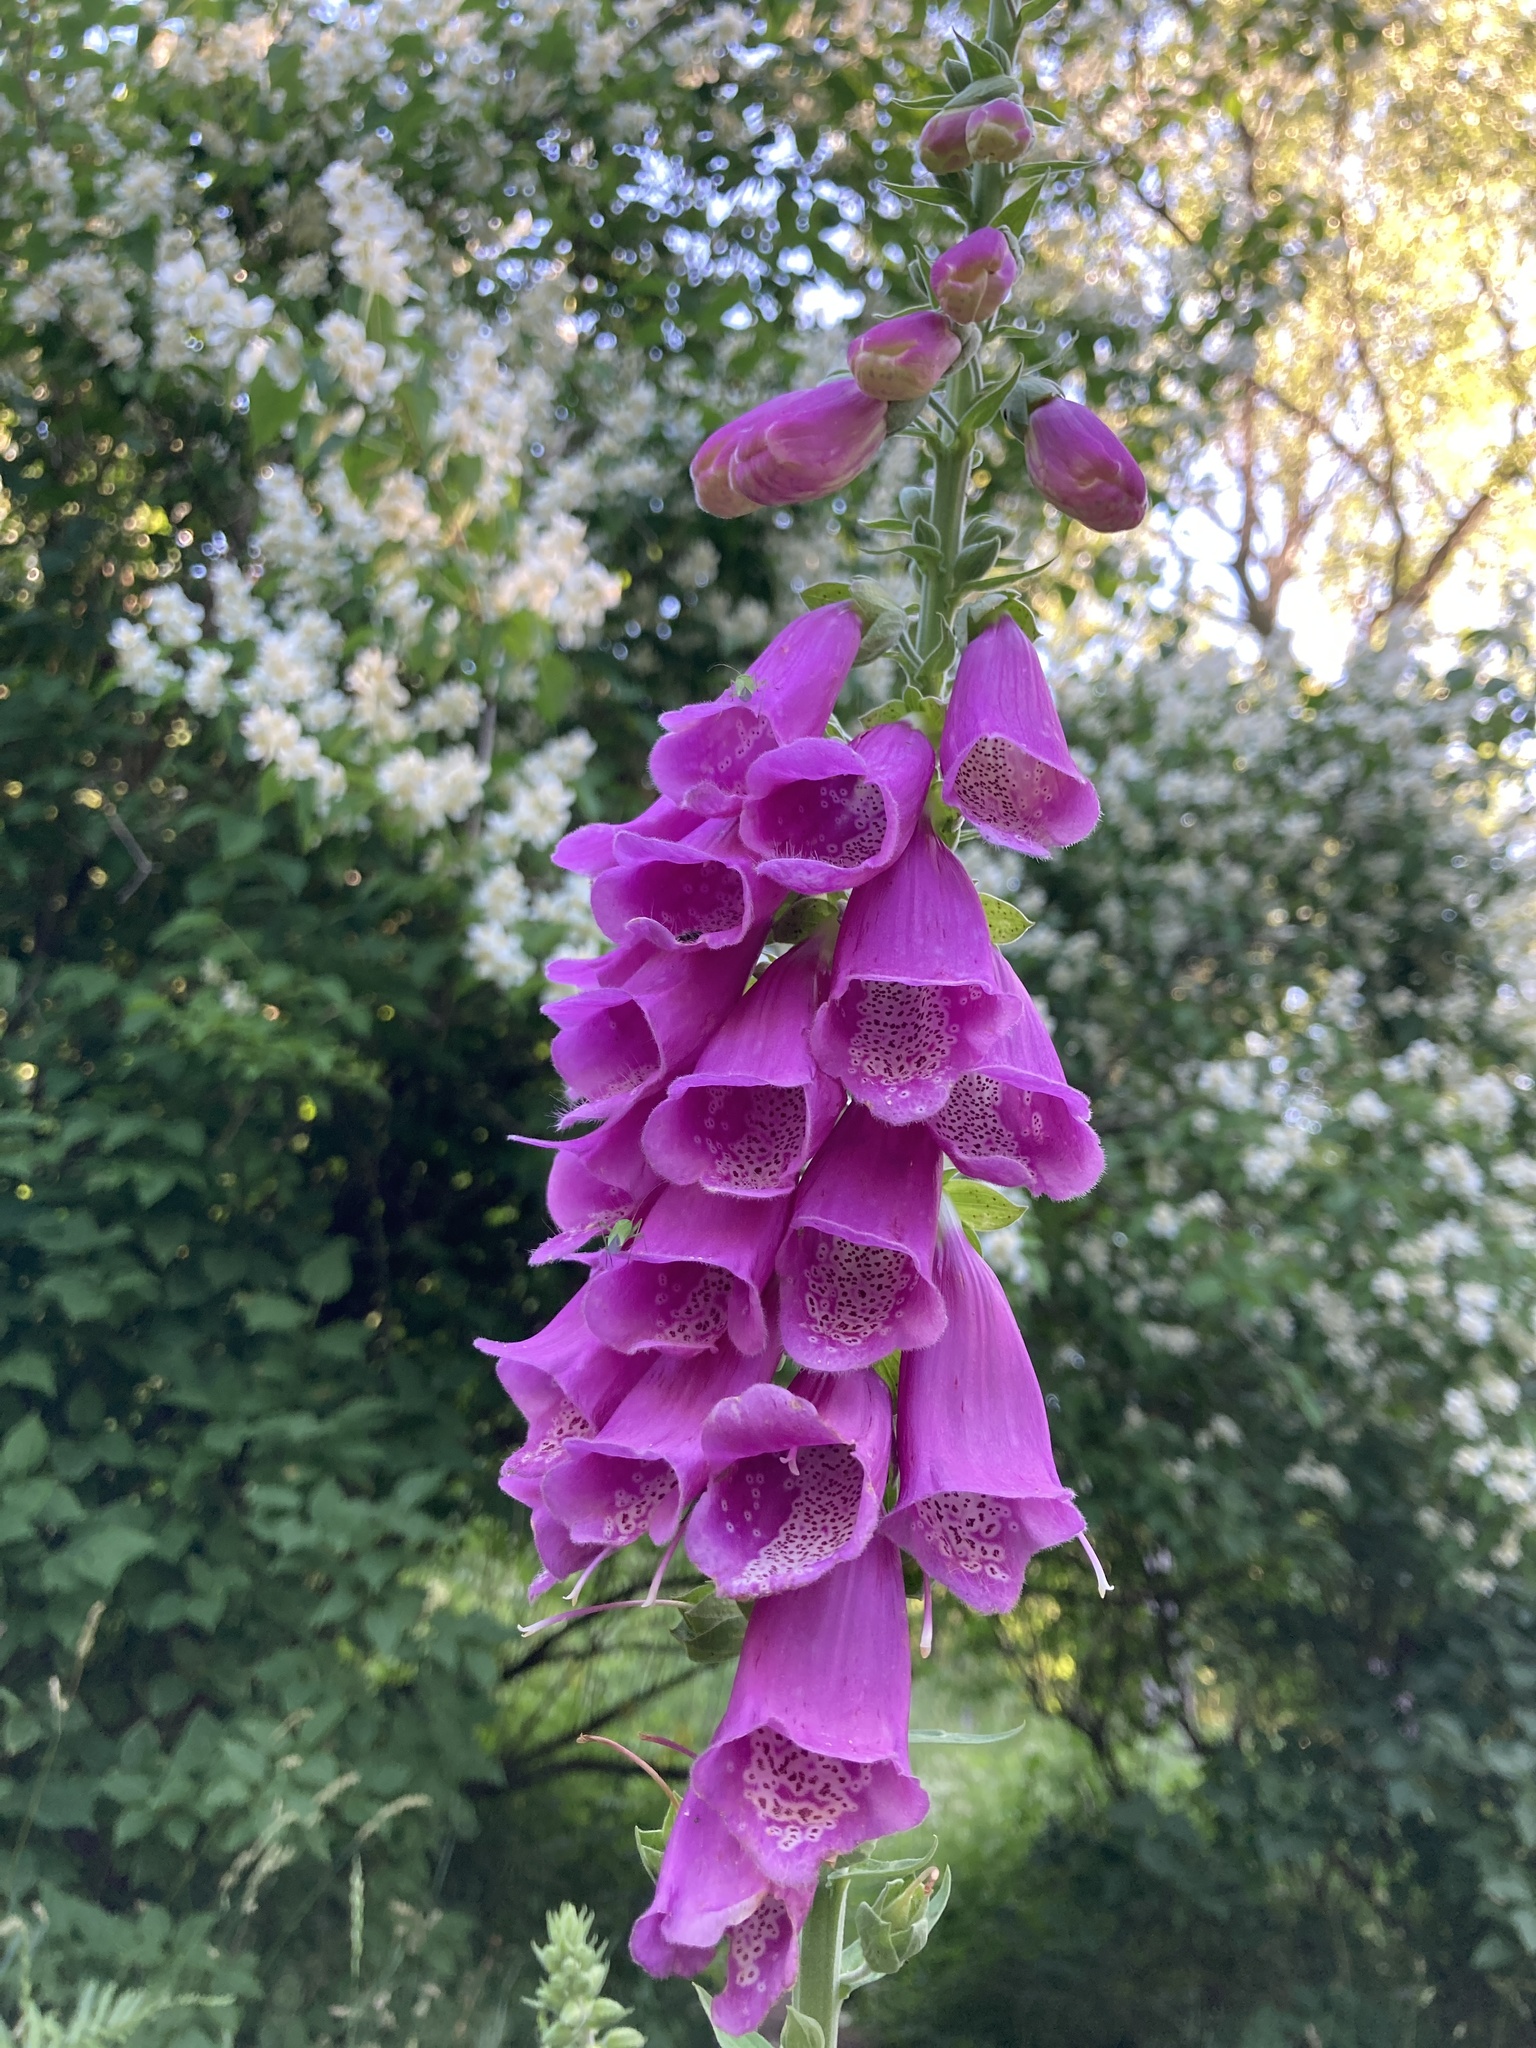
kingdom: Plantae
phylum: Tracheophyta
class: Magnoliopsida
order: Lamiales
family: Plantaginaceae
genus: Digitalis
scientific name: Digitalis purpurea
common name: Foxglove
